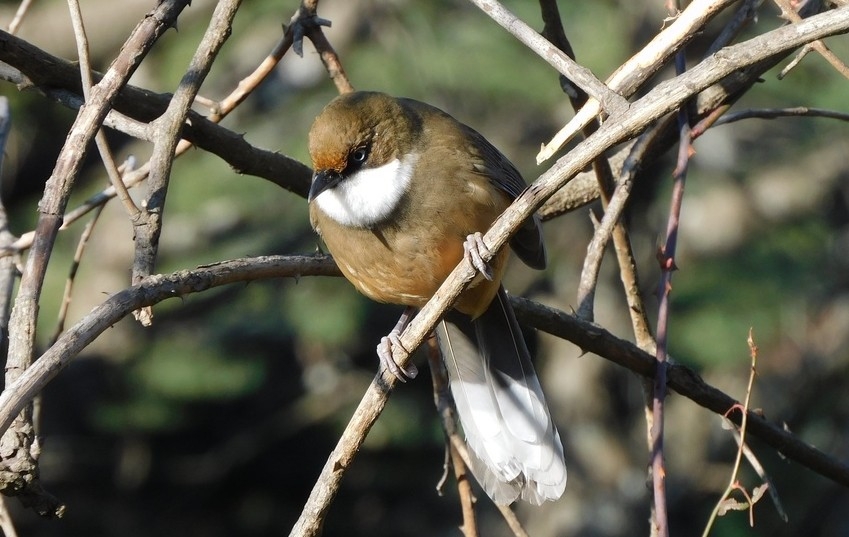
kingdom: Animalia
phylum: Chordata
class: Aves
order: Passeriformes
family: Leiothrichidae
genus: Garrulax
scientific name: Garrulax albogularis
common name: White-throated laughingthrush
